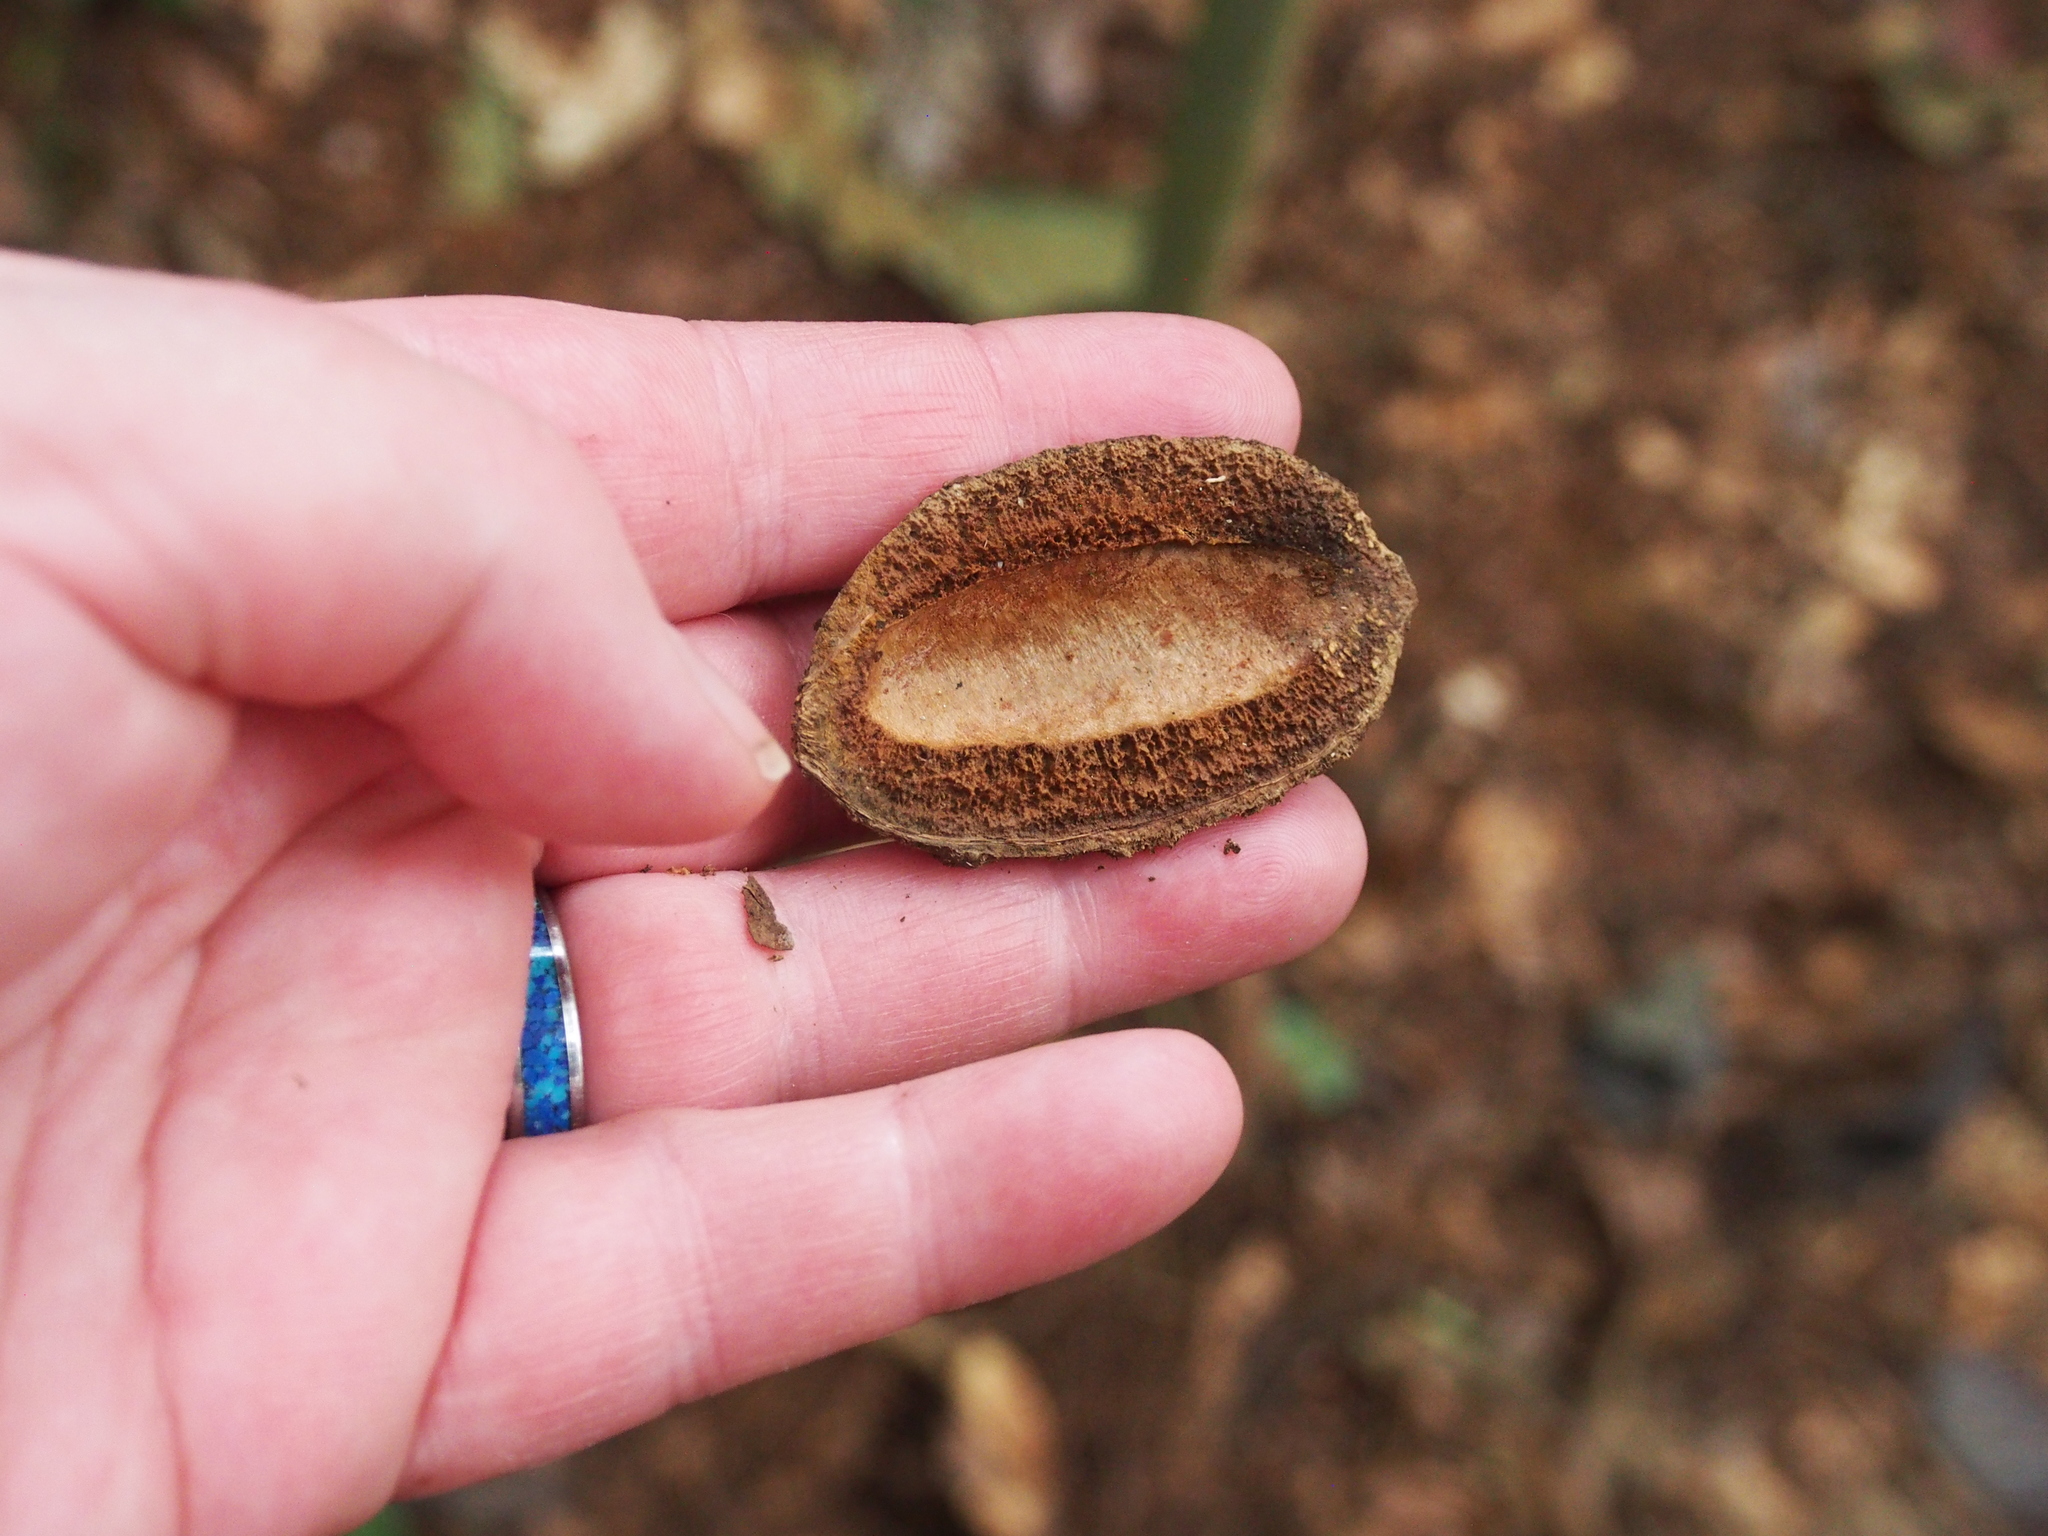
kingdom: Plantae
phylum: Tracheophyta
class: Magnoliopsida
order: Fabales
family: Fabaceae
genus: Dipteryx
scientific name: Dipteryx oleifera
